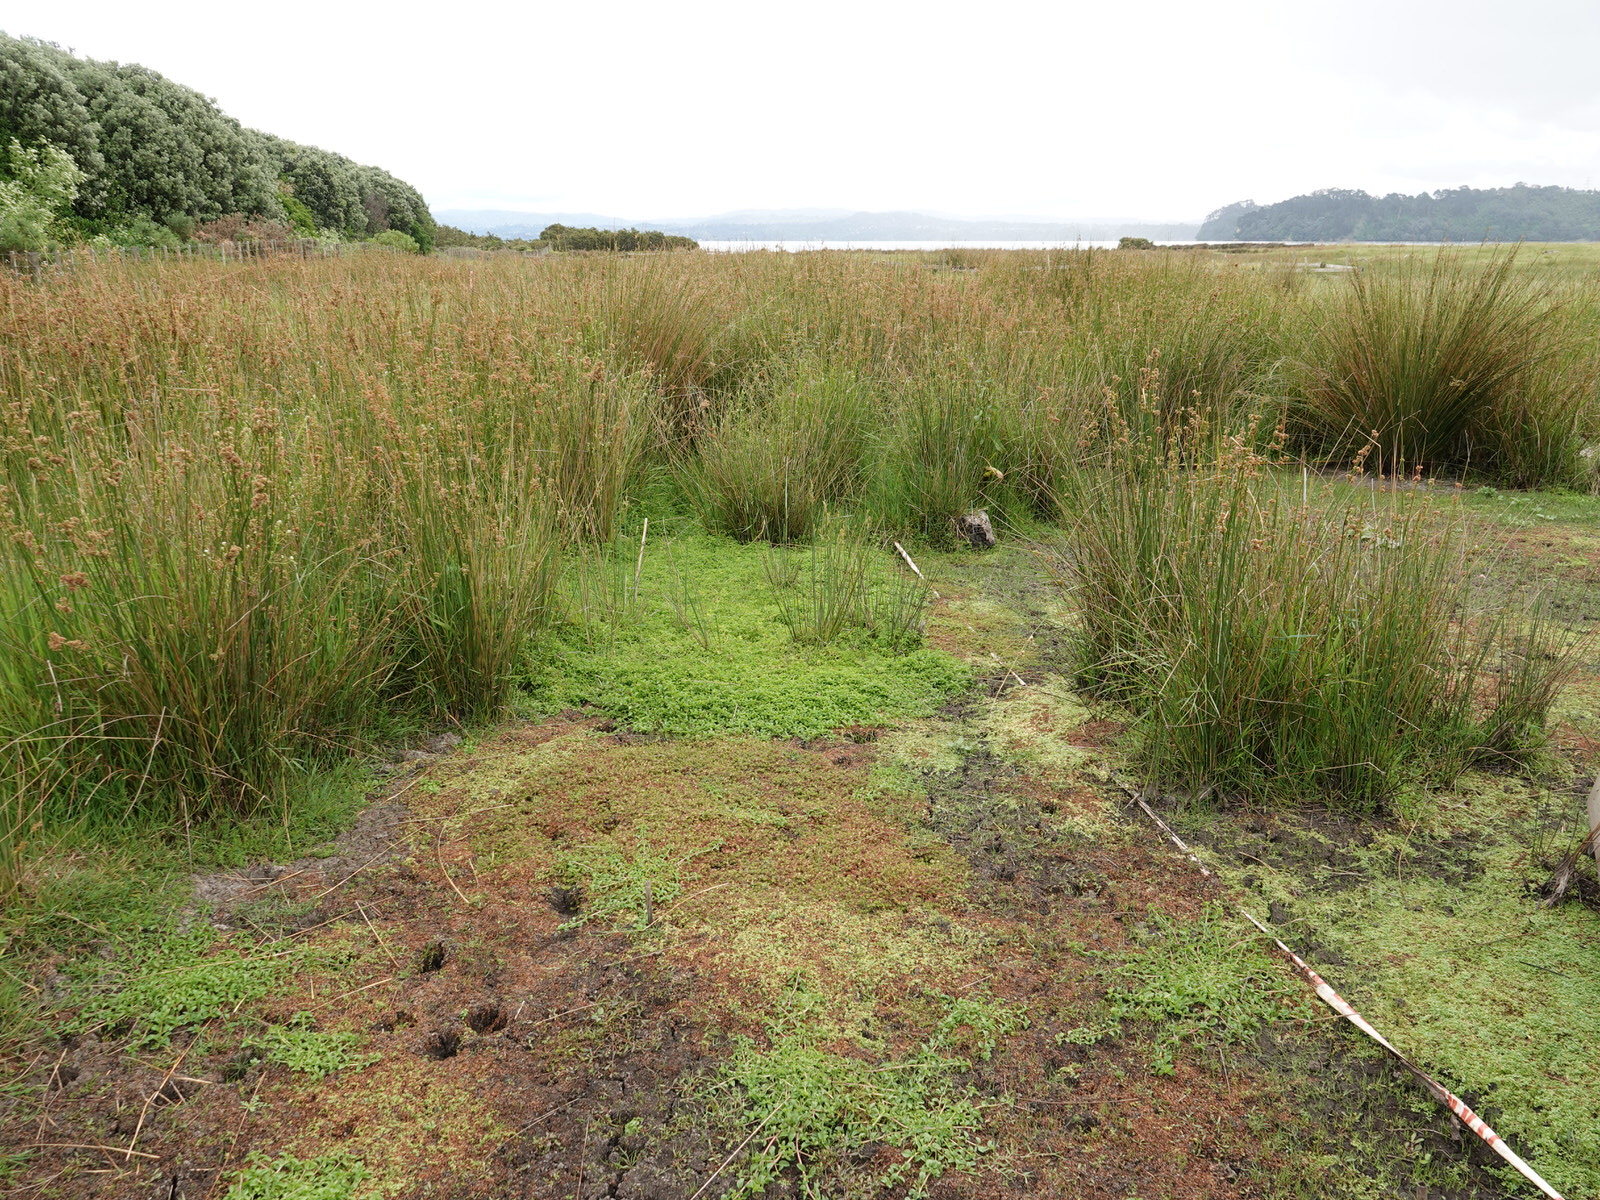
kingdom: Plantae
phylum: Tracheophyta
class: Magnoliopsida
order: Saxifragales
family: Haloragaceae
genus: Myriophyllum
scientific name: Myriophyllum propinquum
